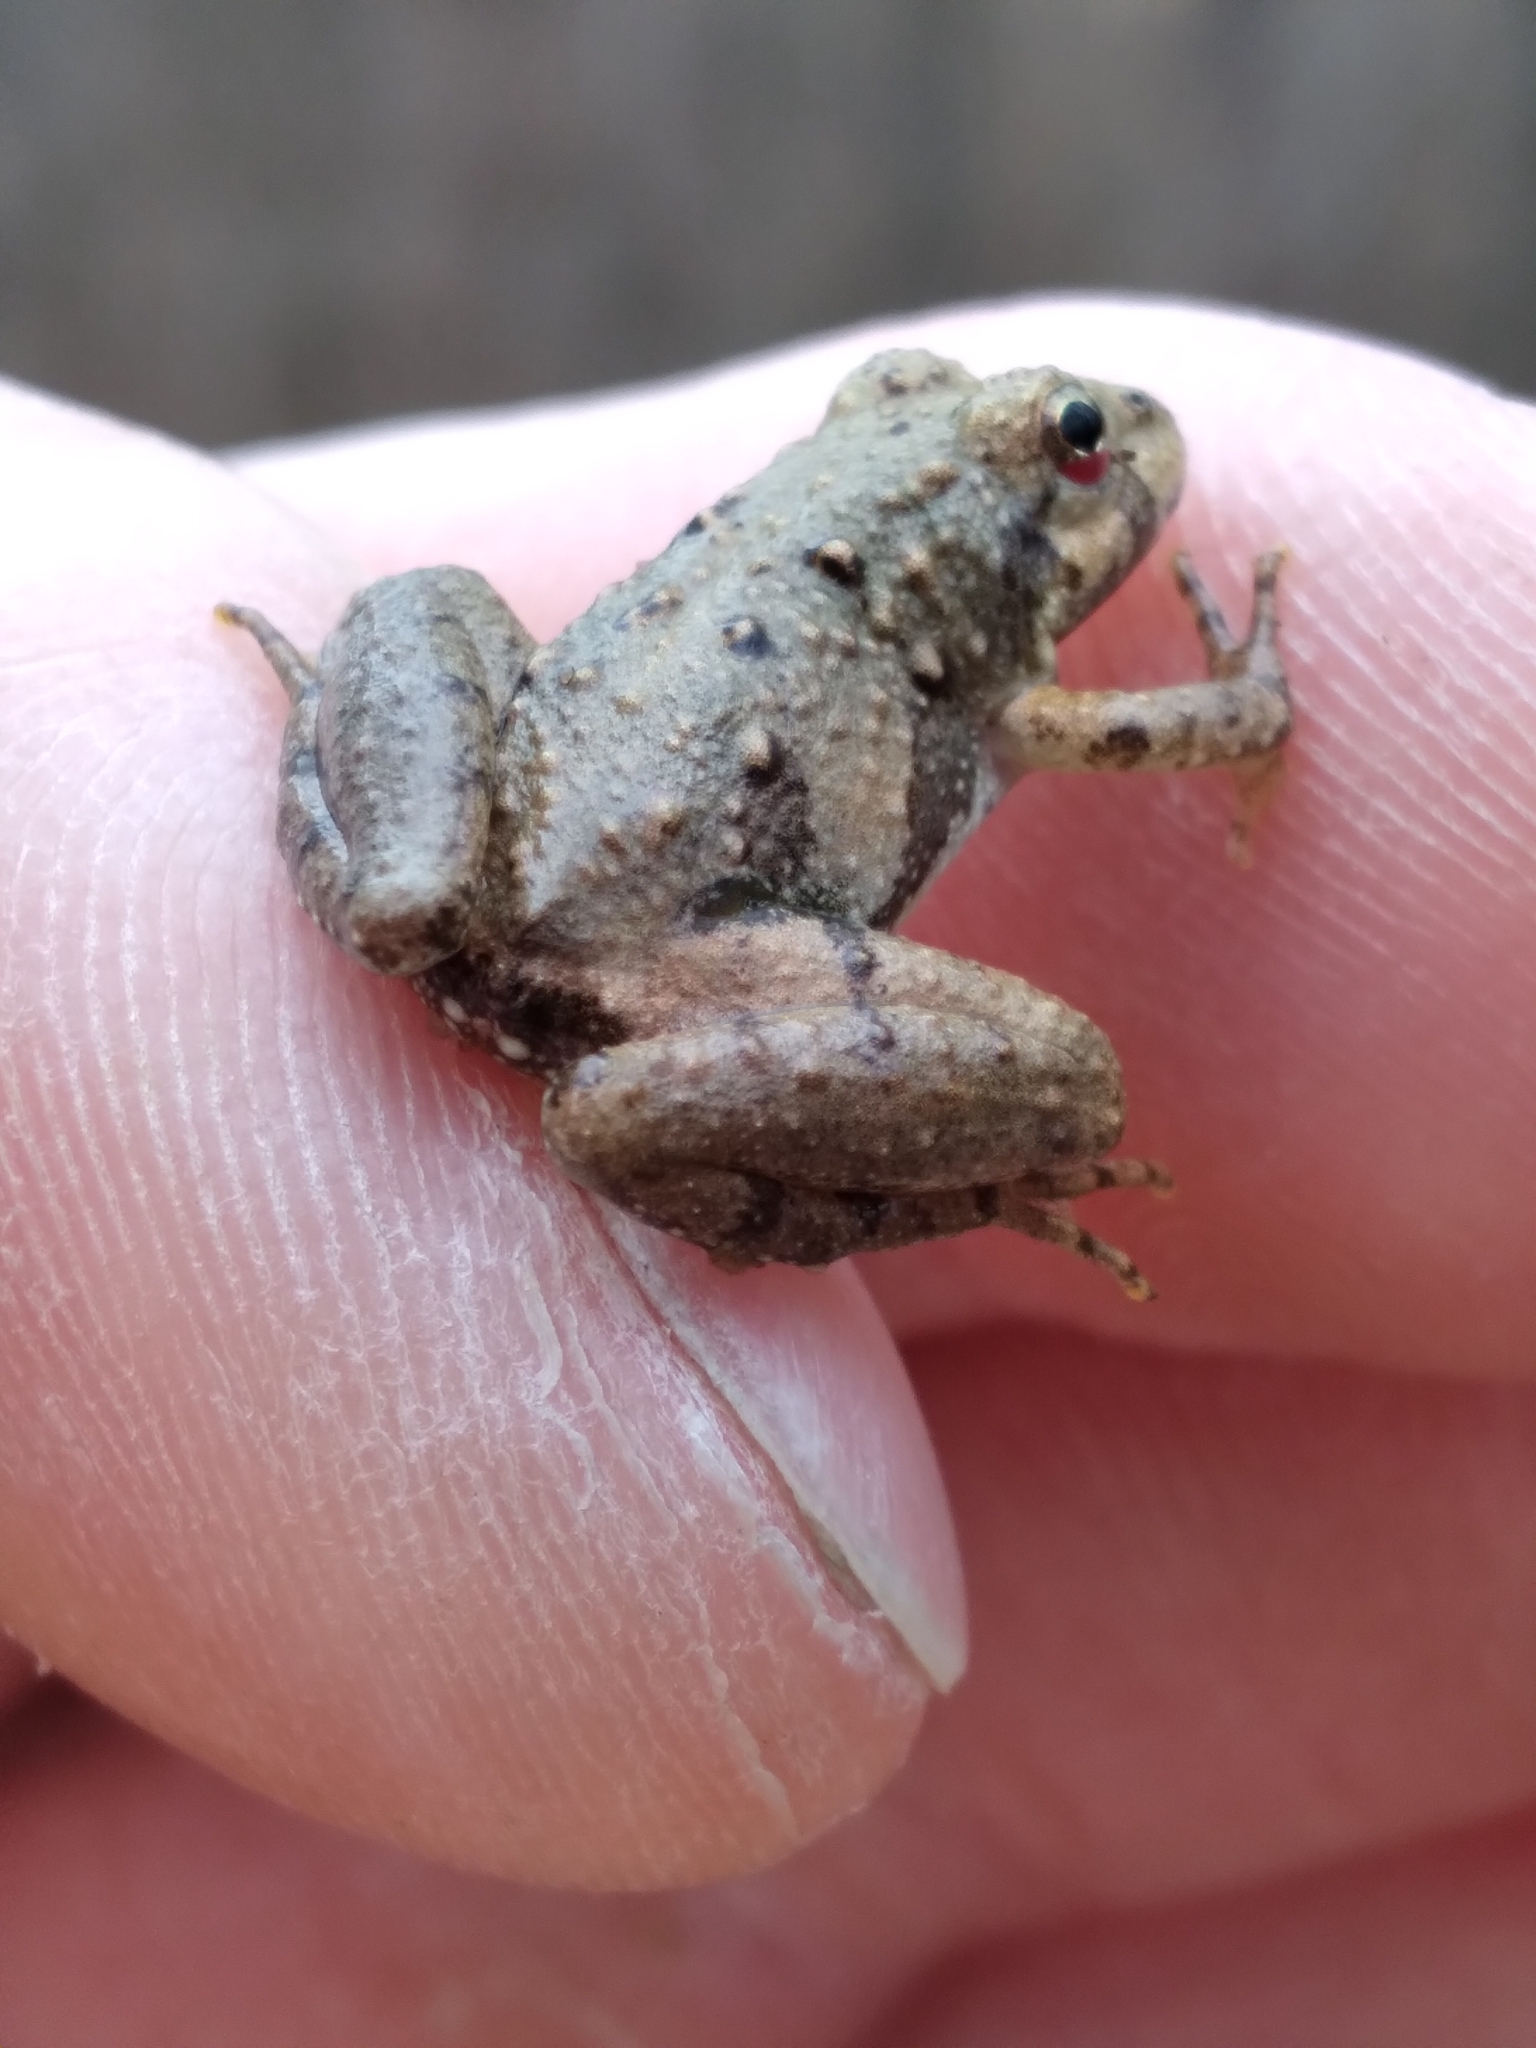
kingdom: Animalia
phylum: Chordata
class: Amphibia
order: Anura
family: Hylidae
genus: Acris
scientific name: Acris crepitans
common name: Northern cricket frog
